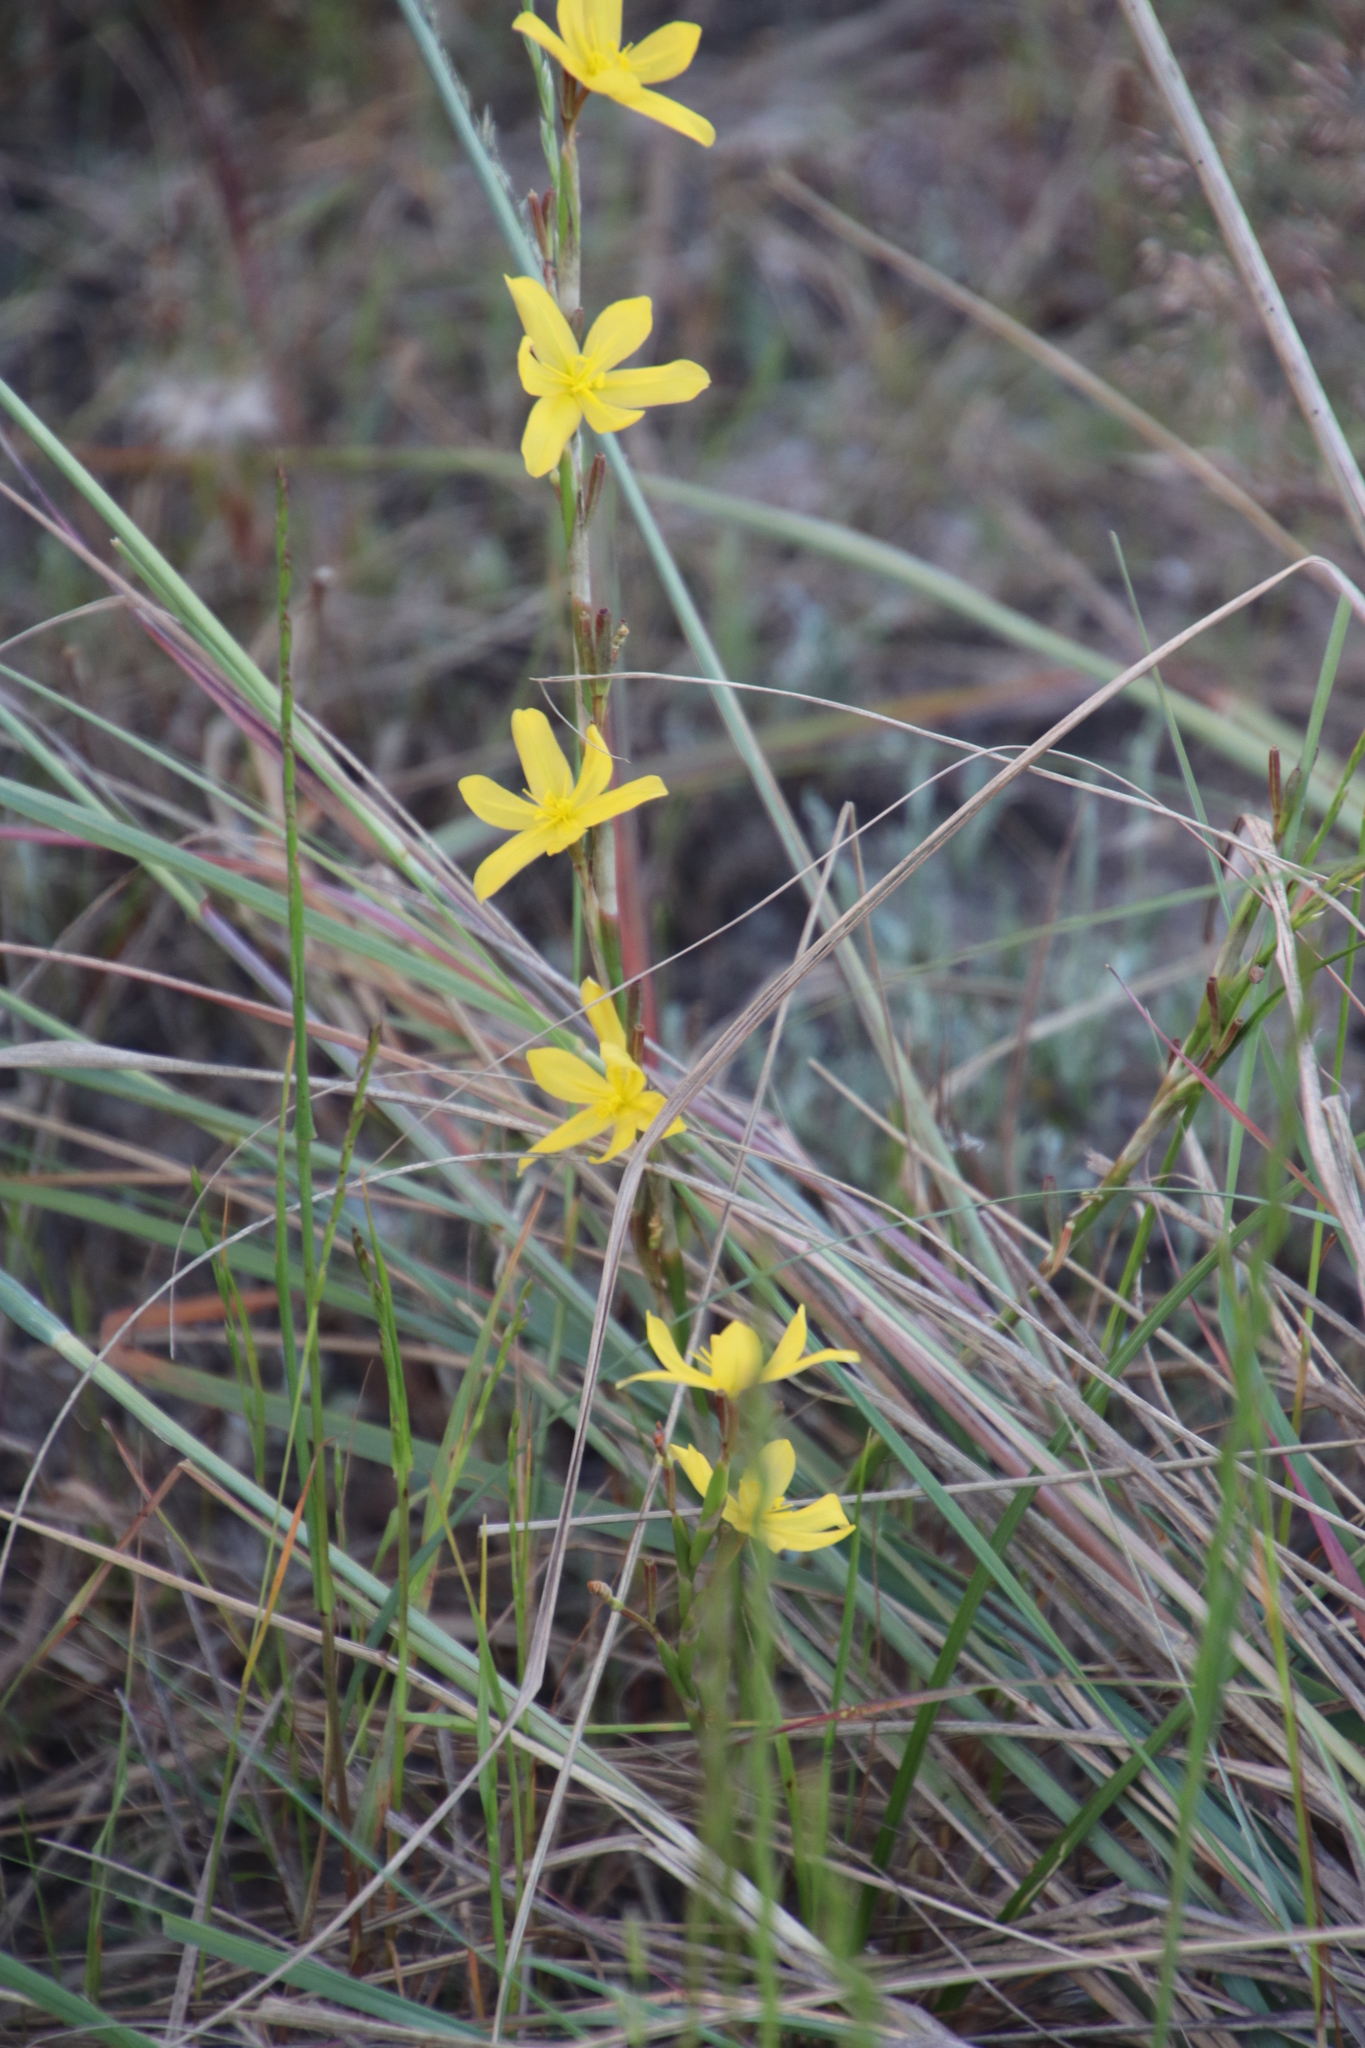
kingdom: Plantae
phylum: Tracheophyta
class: Liliopsida
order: Asparagales
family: Iridaceae
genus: Moraea
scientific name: Moraea lewisiae
